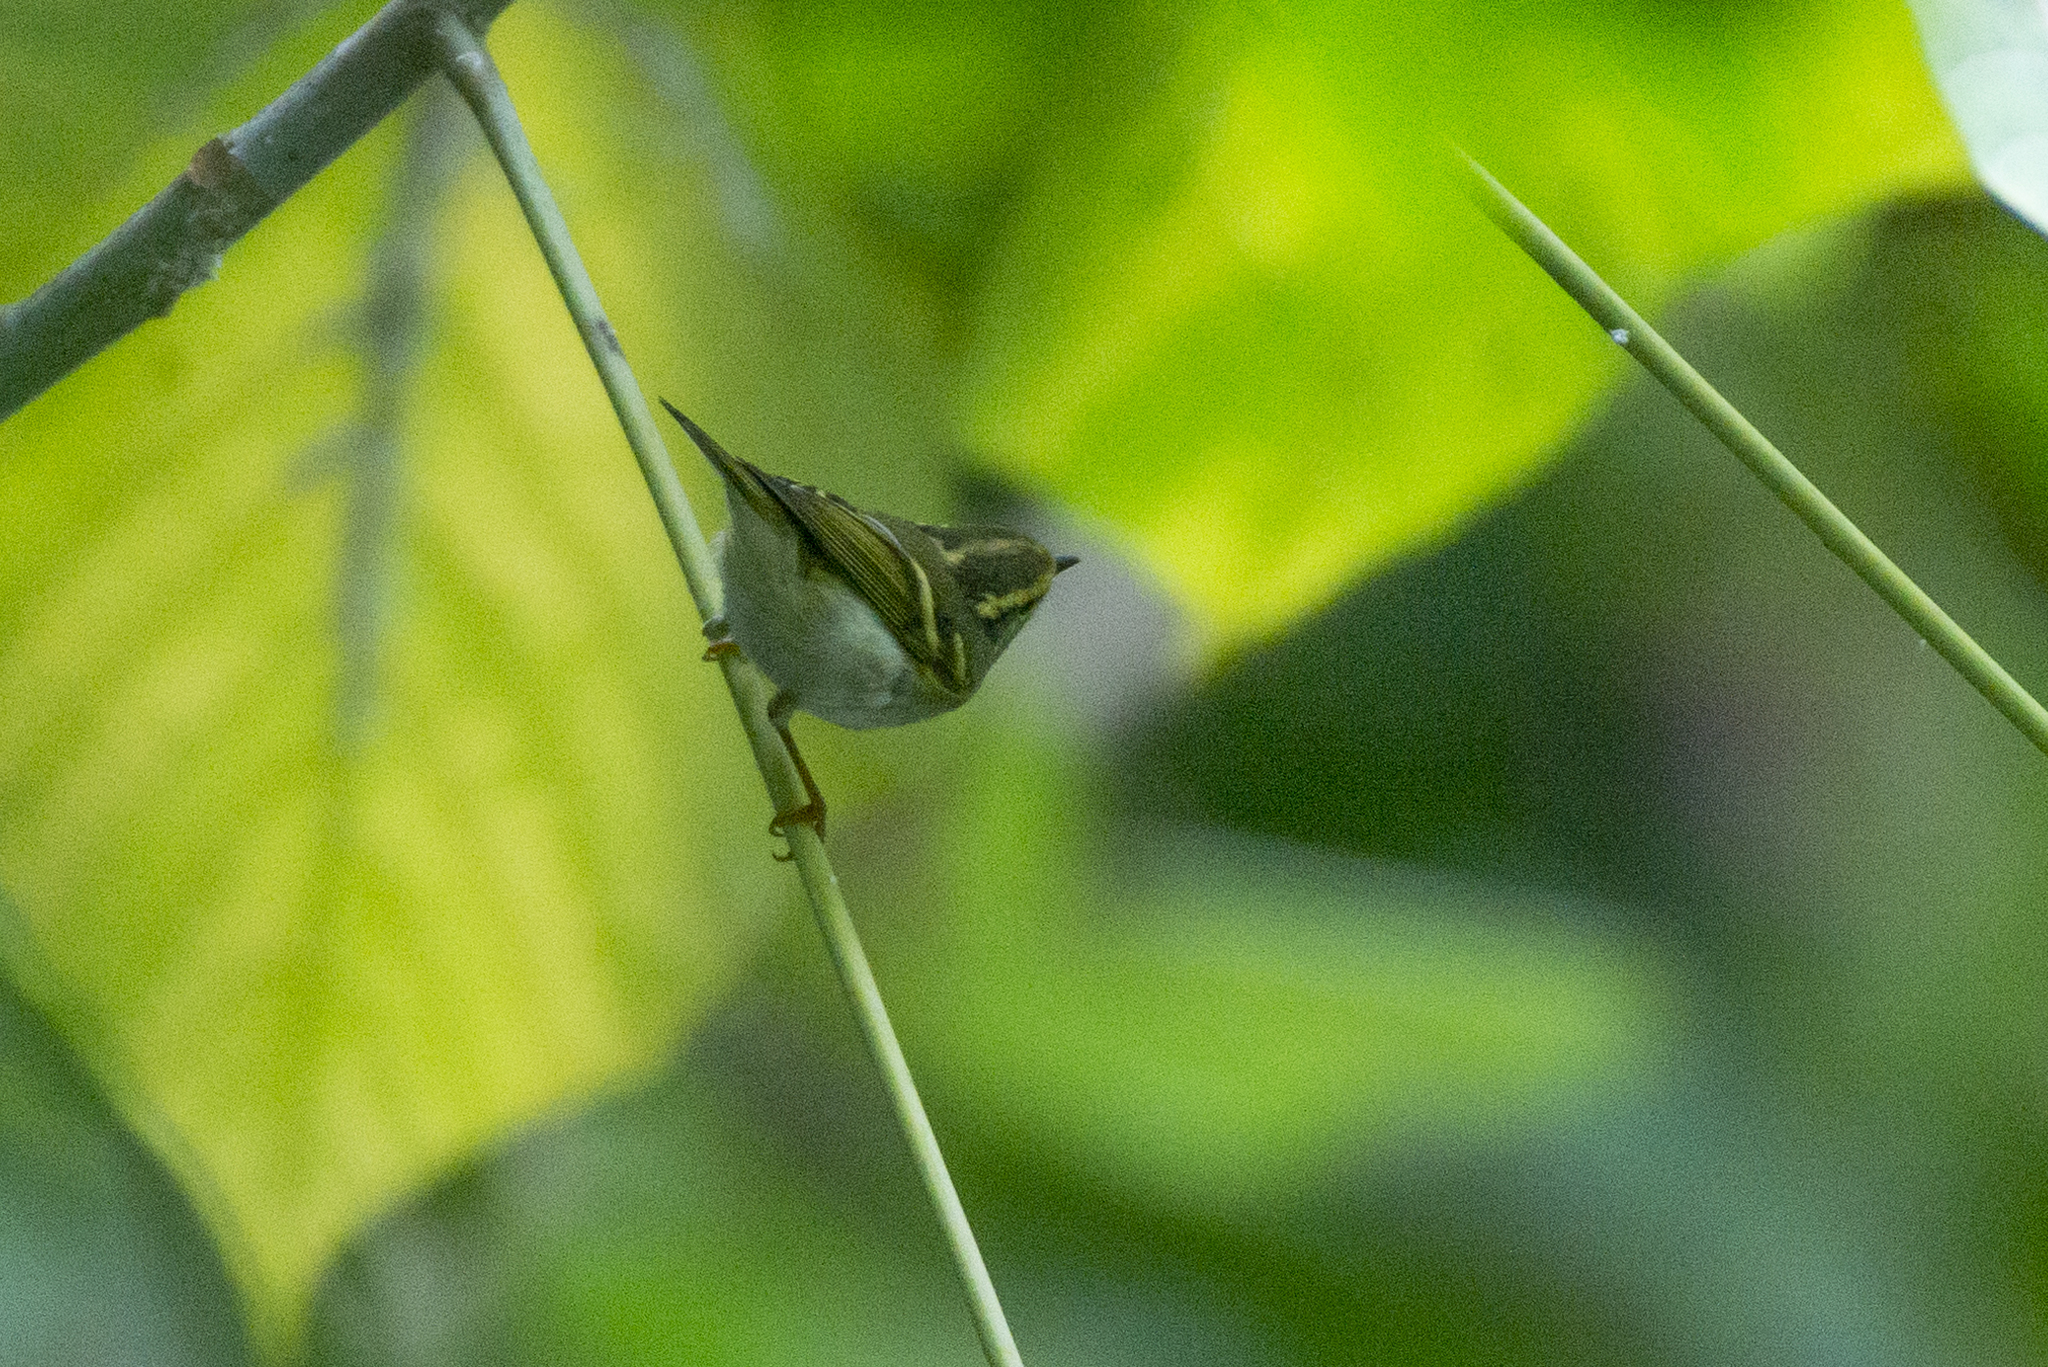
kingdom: Animalia
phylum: Chordata
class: Aves
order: Passeriformes
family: Phylloscopidae
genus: Phylloscopus
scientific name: Phylloscopus proregulus
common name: Pallas's leaf warbler
